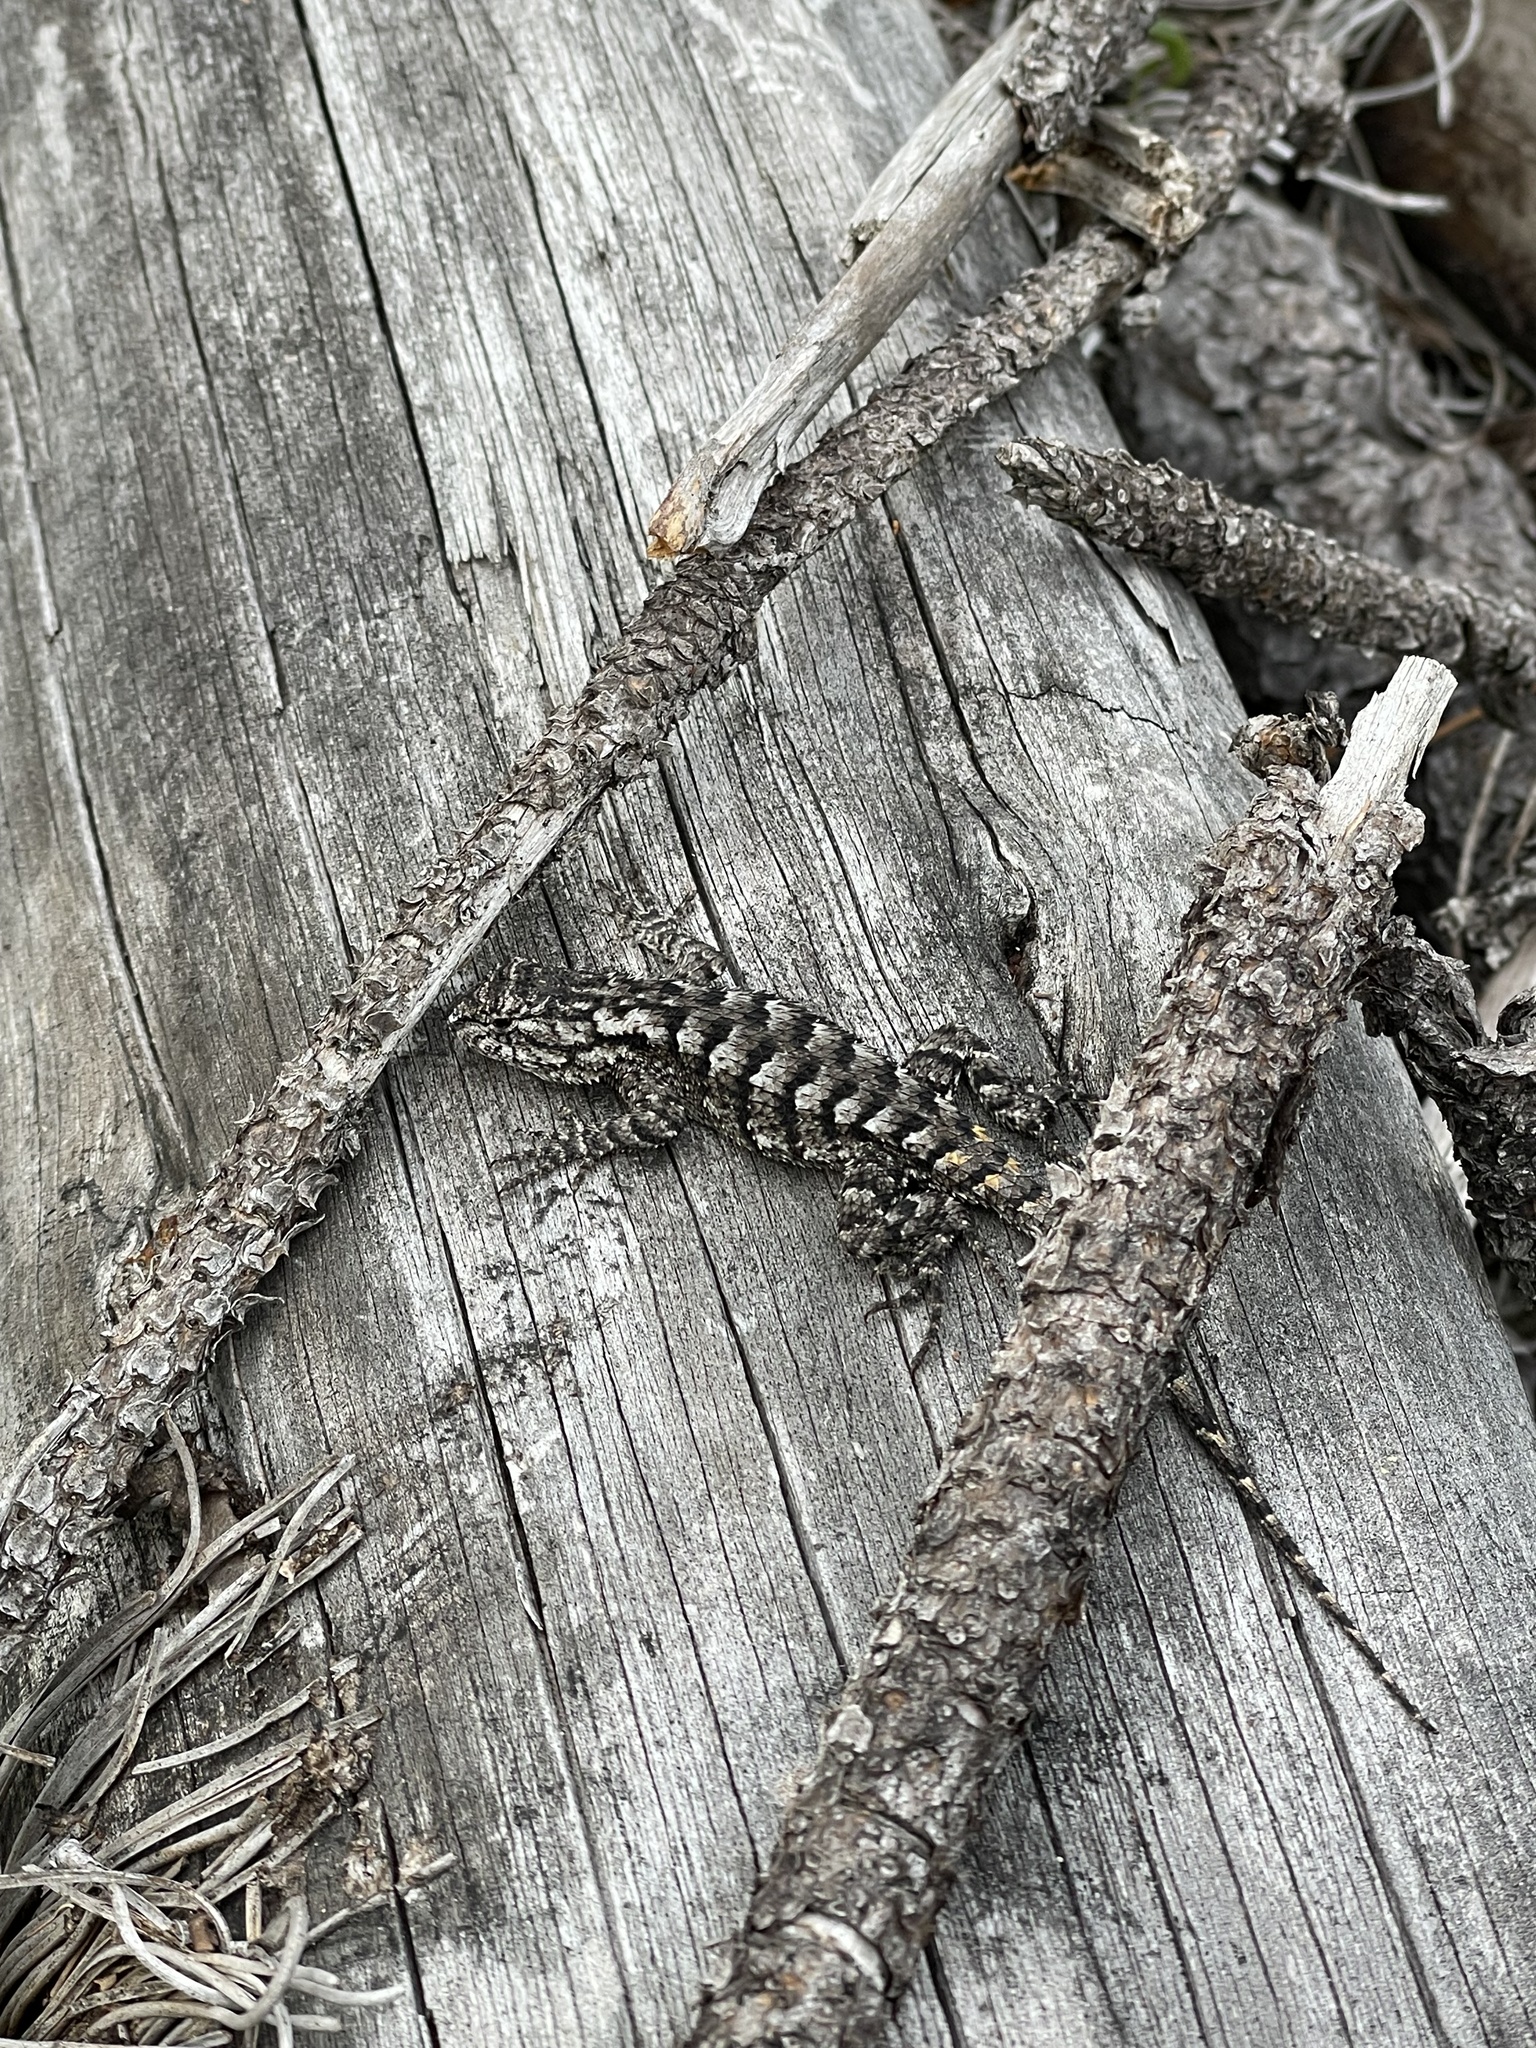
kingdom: Animalia
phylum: Chordata
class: Squamata
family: Phrynosomatidae
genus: Sceloporus
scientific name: Sceloporus undulatus
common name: Eastern fence lizard
